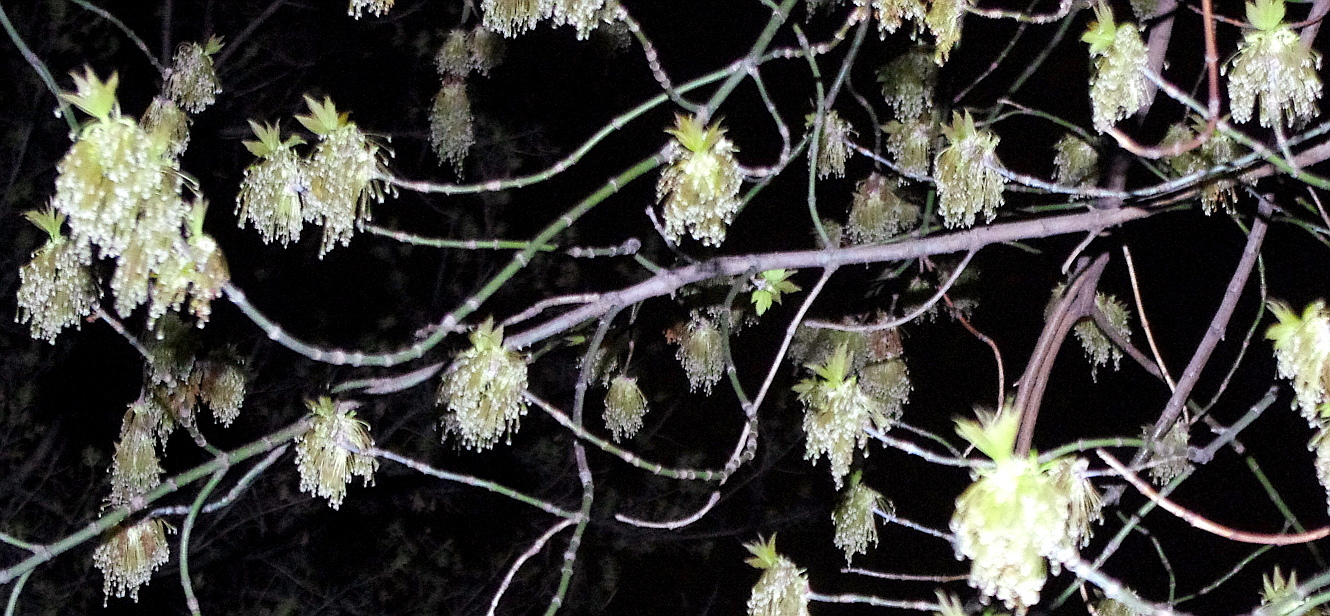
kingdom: Plantae
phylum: Tracheophyta
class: Magnoliopsida
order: Sapindales
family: Sapindaceae
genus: Acer
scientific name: Acer negundo
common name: Ashleaf maple
